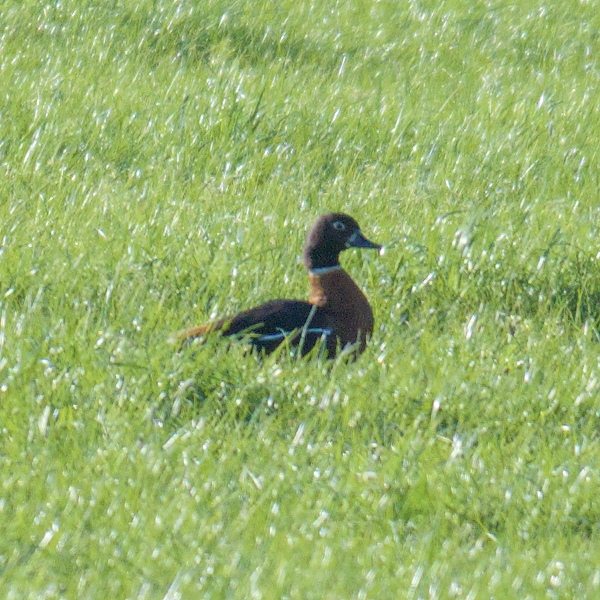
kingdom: Animalia
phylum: Chordata
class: Aves
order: Anseriformes
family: Anatidae
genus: Tadorna
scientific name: Tadorna tadornoides
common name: Australian shelduck
